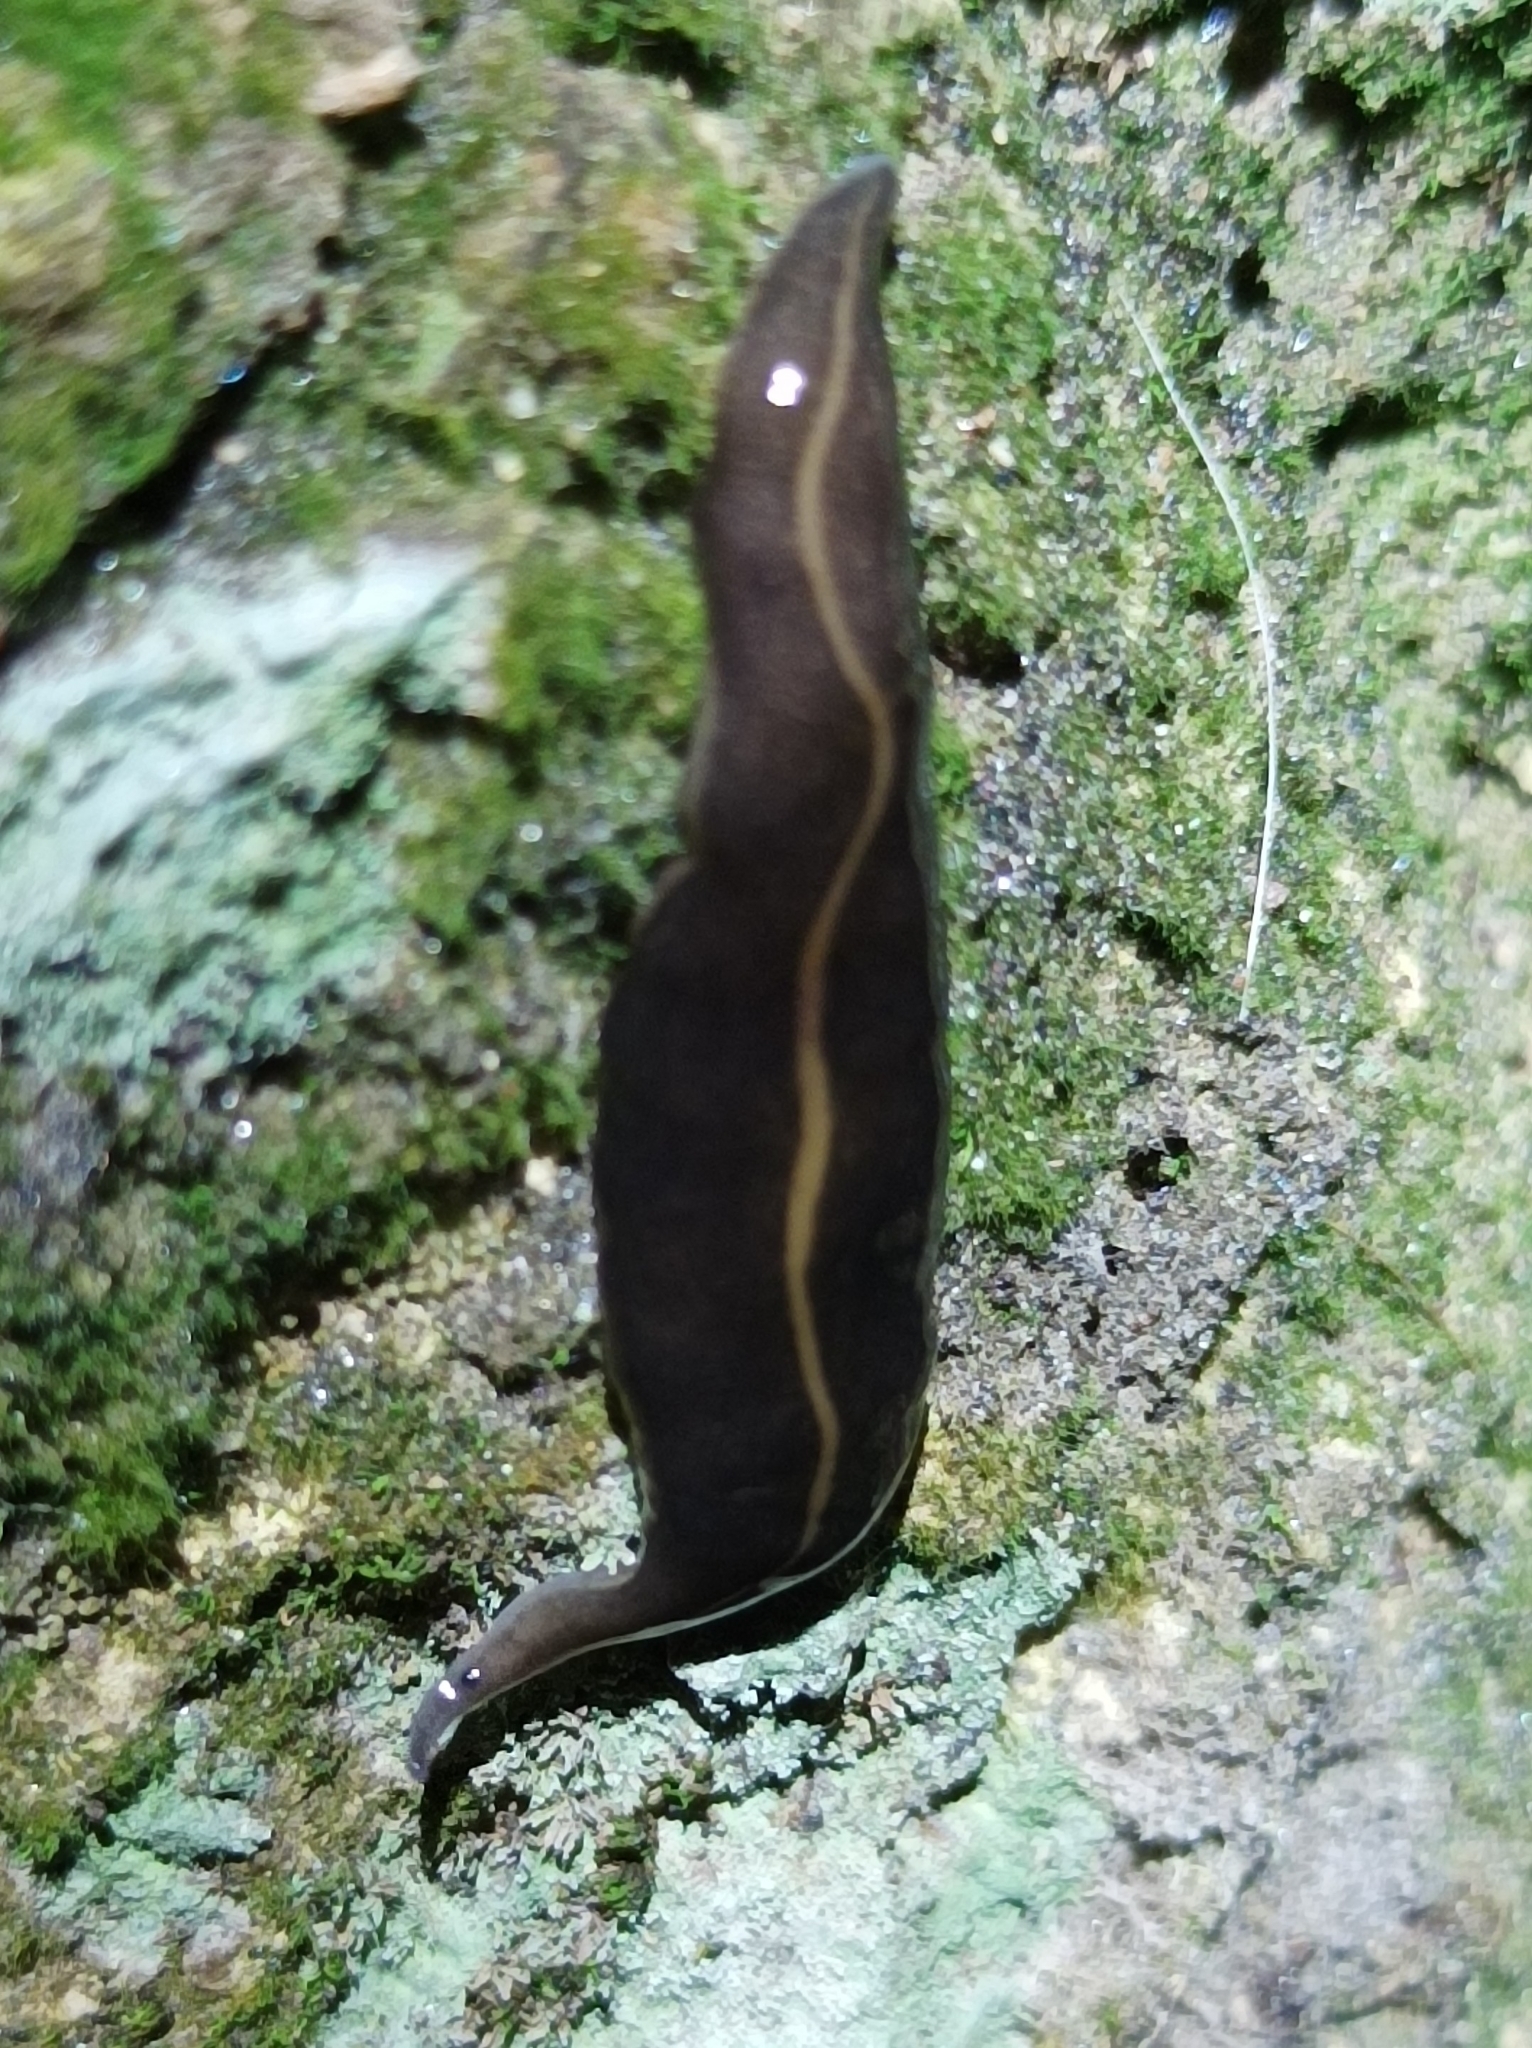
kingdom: Animalia
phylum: Platyhelminthes
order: Tricladida
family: Geoplanidae
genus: Platydemus
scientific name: Platydemus manokwari
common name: New guinea flatworm
